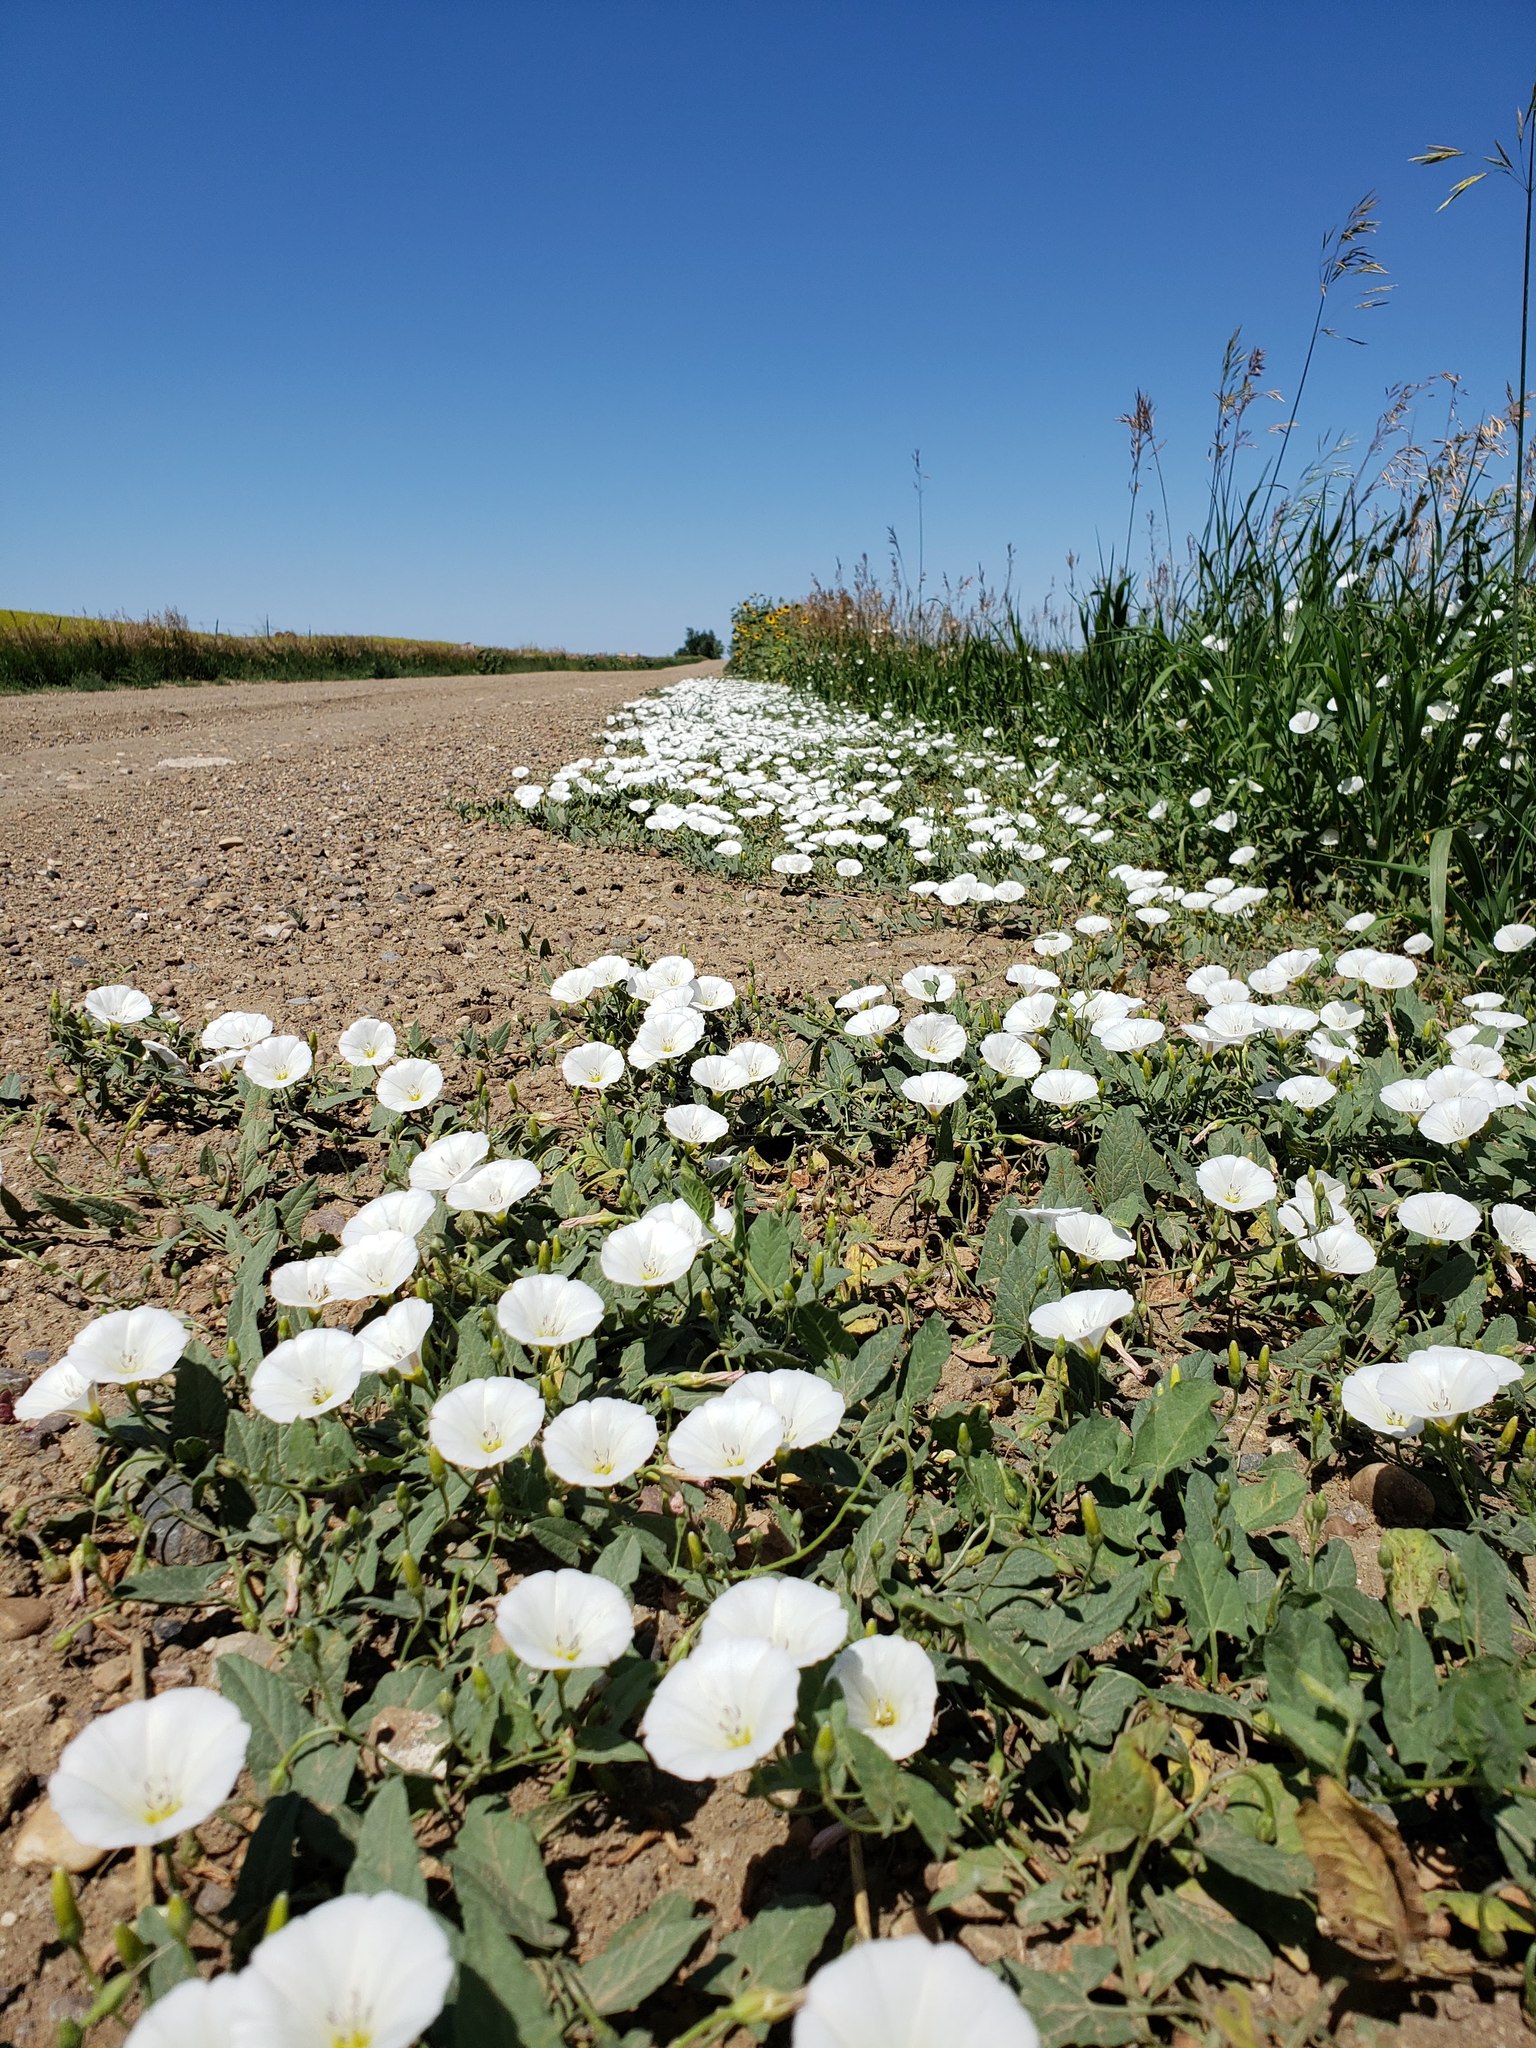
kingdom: Plantae
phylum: Tracheophyta
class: Magnoliopsida
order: Solanales
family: Convolvulaceae
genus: Convolvulus
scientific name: Convolvulus arvensis
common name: Field bindweed
